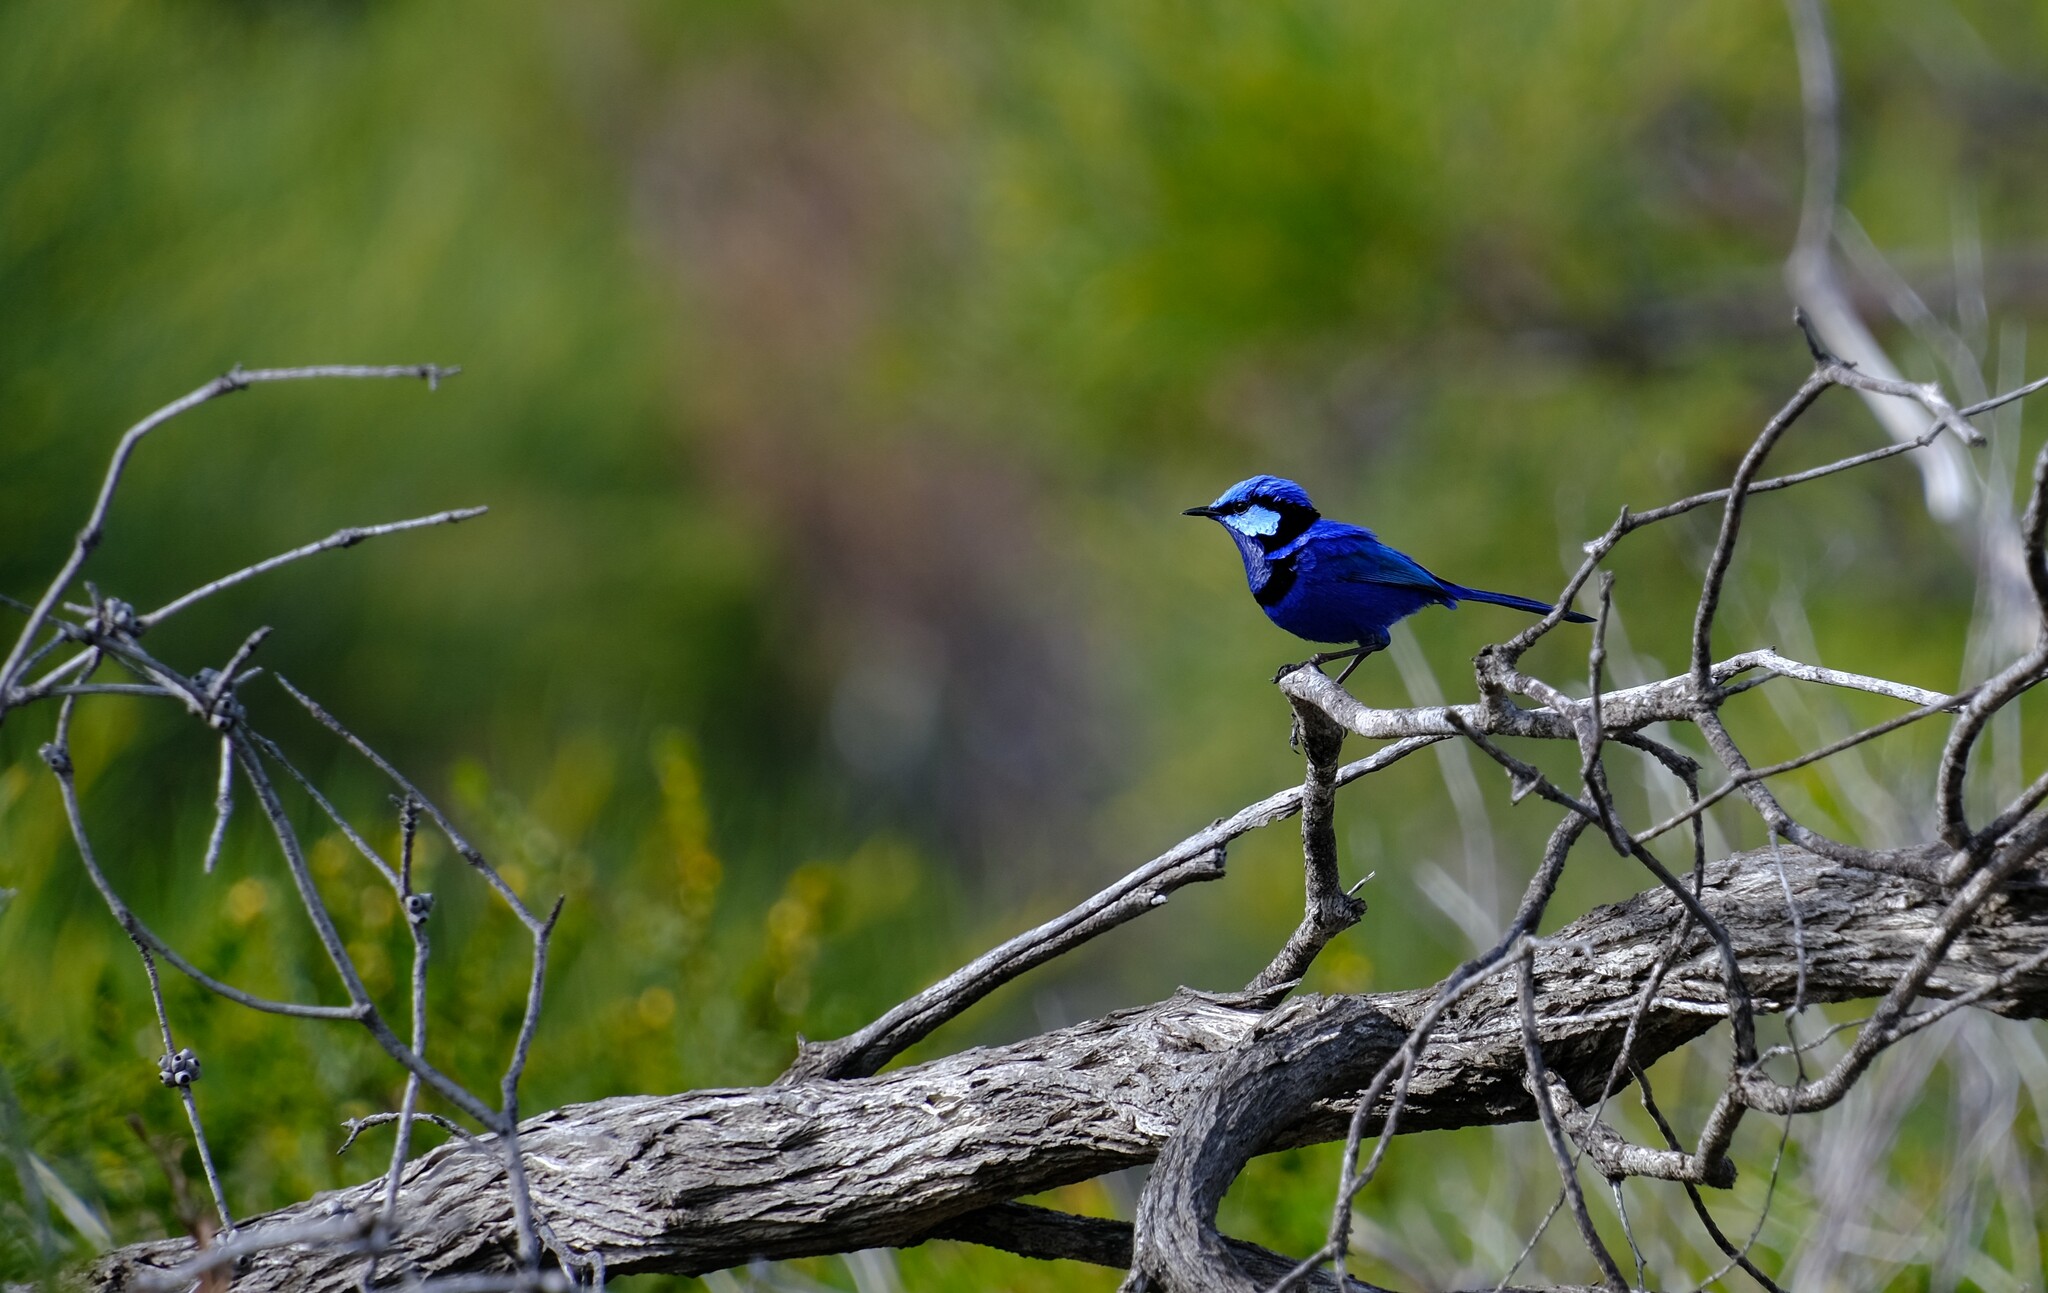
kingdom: Animalia
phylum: Chordata
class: Aves
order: Passeriformes
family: Maluridae
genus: Malurus
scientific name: Malurus splendens
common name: Splendid fairywren
